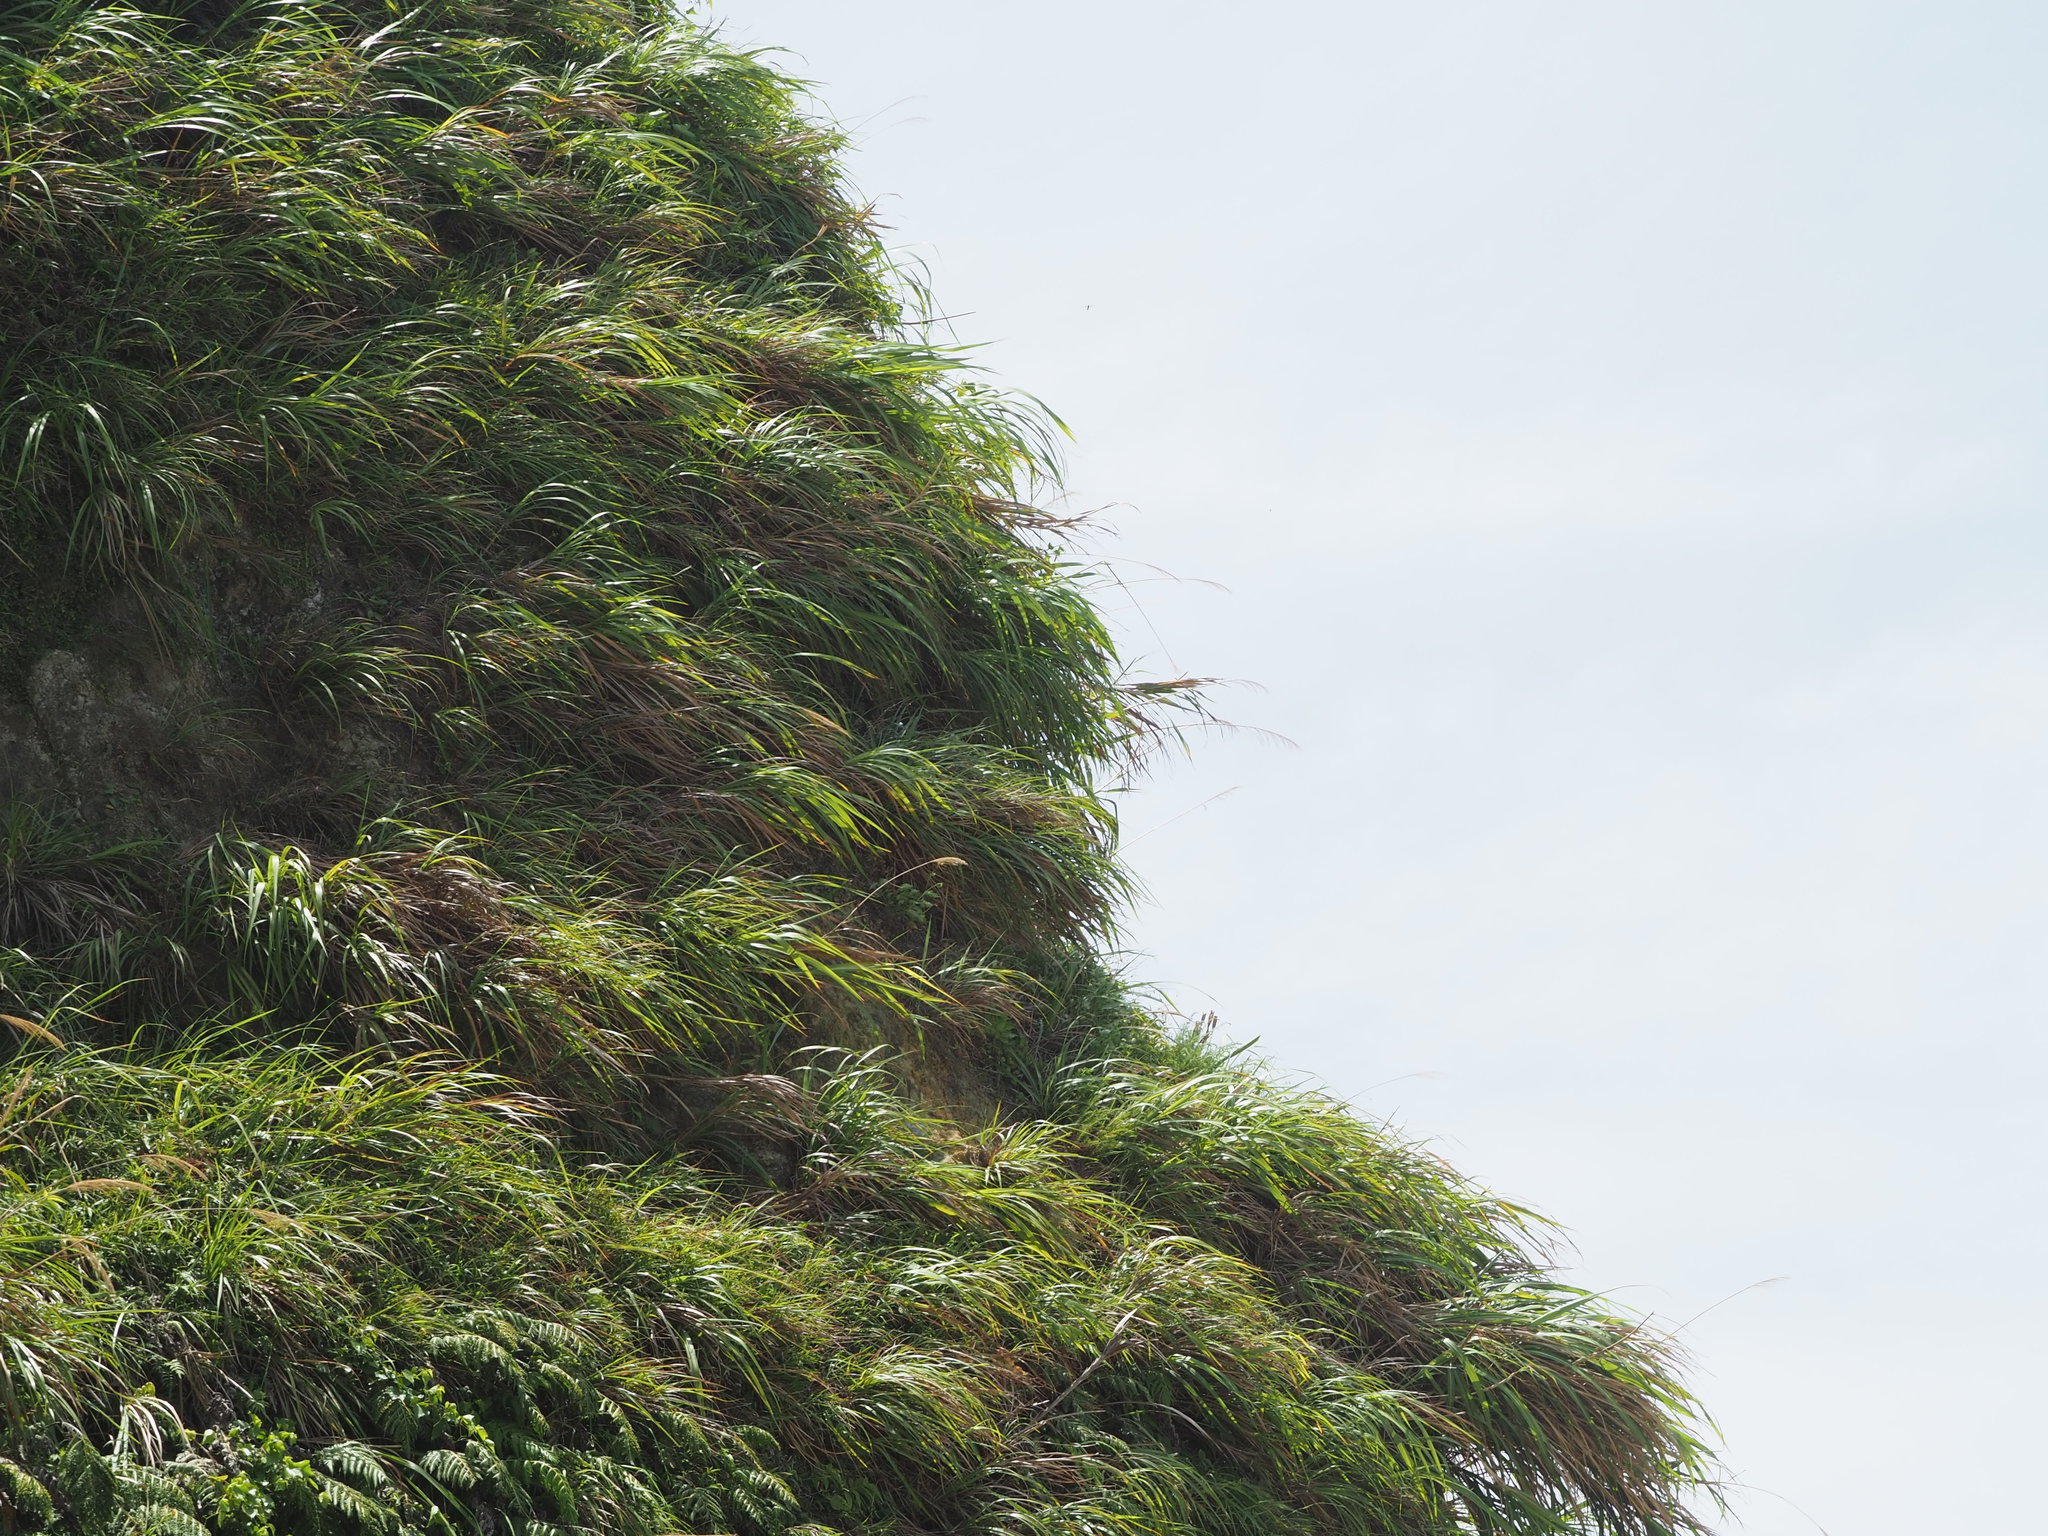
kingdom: Plantae
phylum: Tracheophyta
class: Liliopsida
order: Poales
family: Poaceae
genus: Miscanthus
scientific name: Miscanthus floridulus
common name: Pacific island silvergrass
